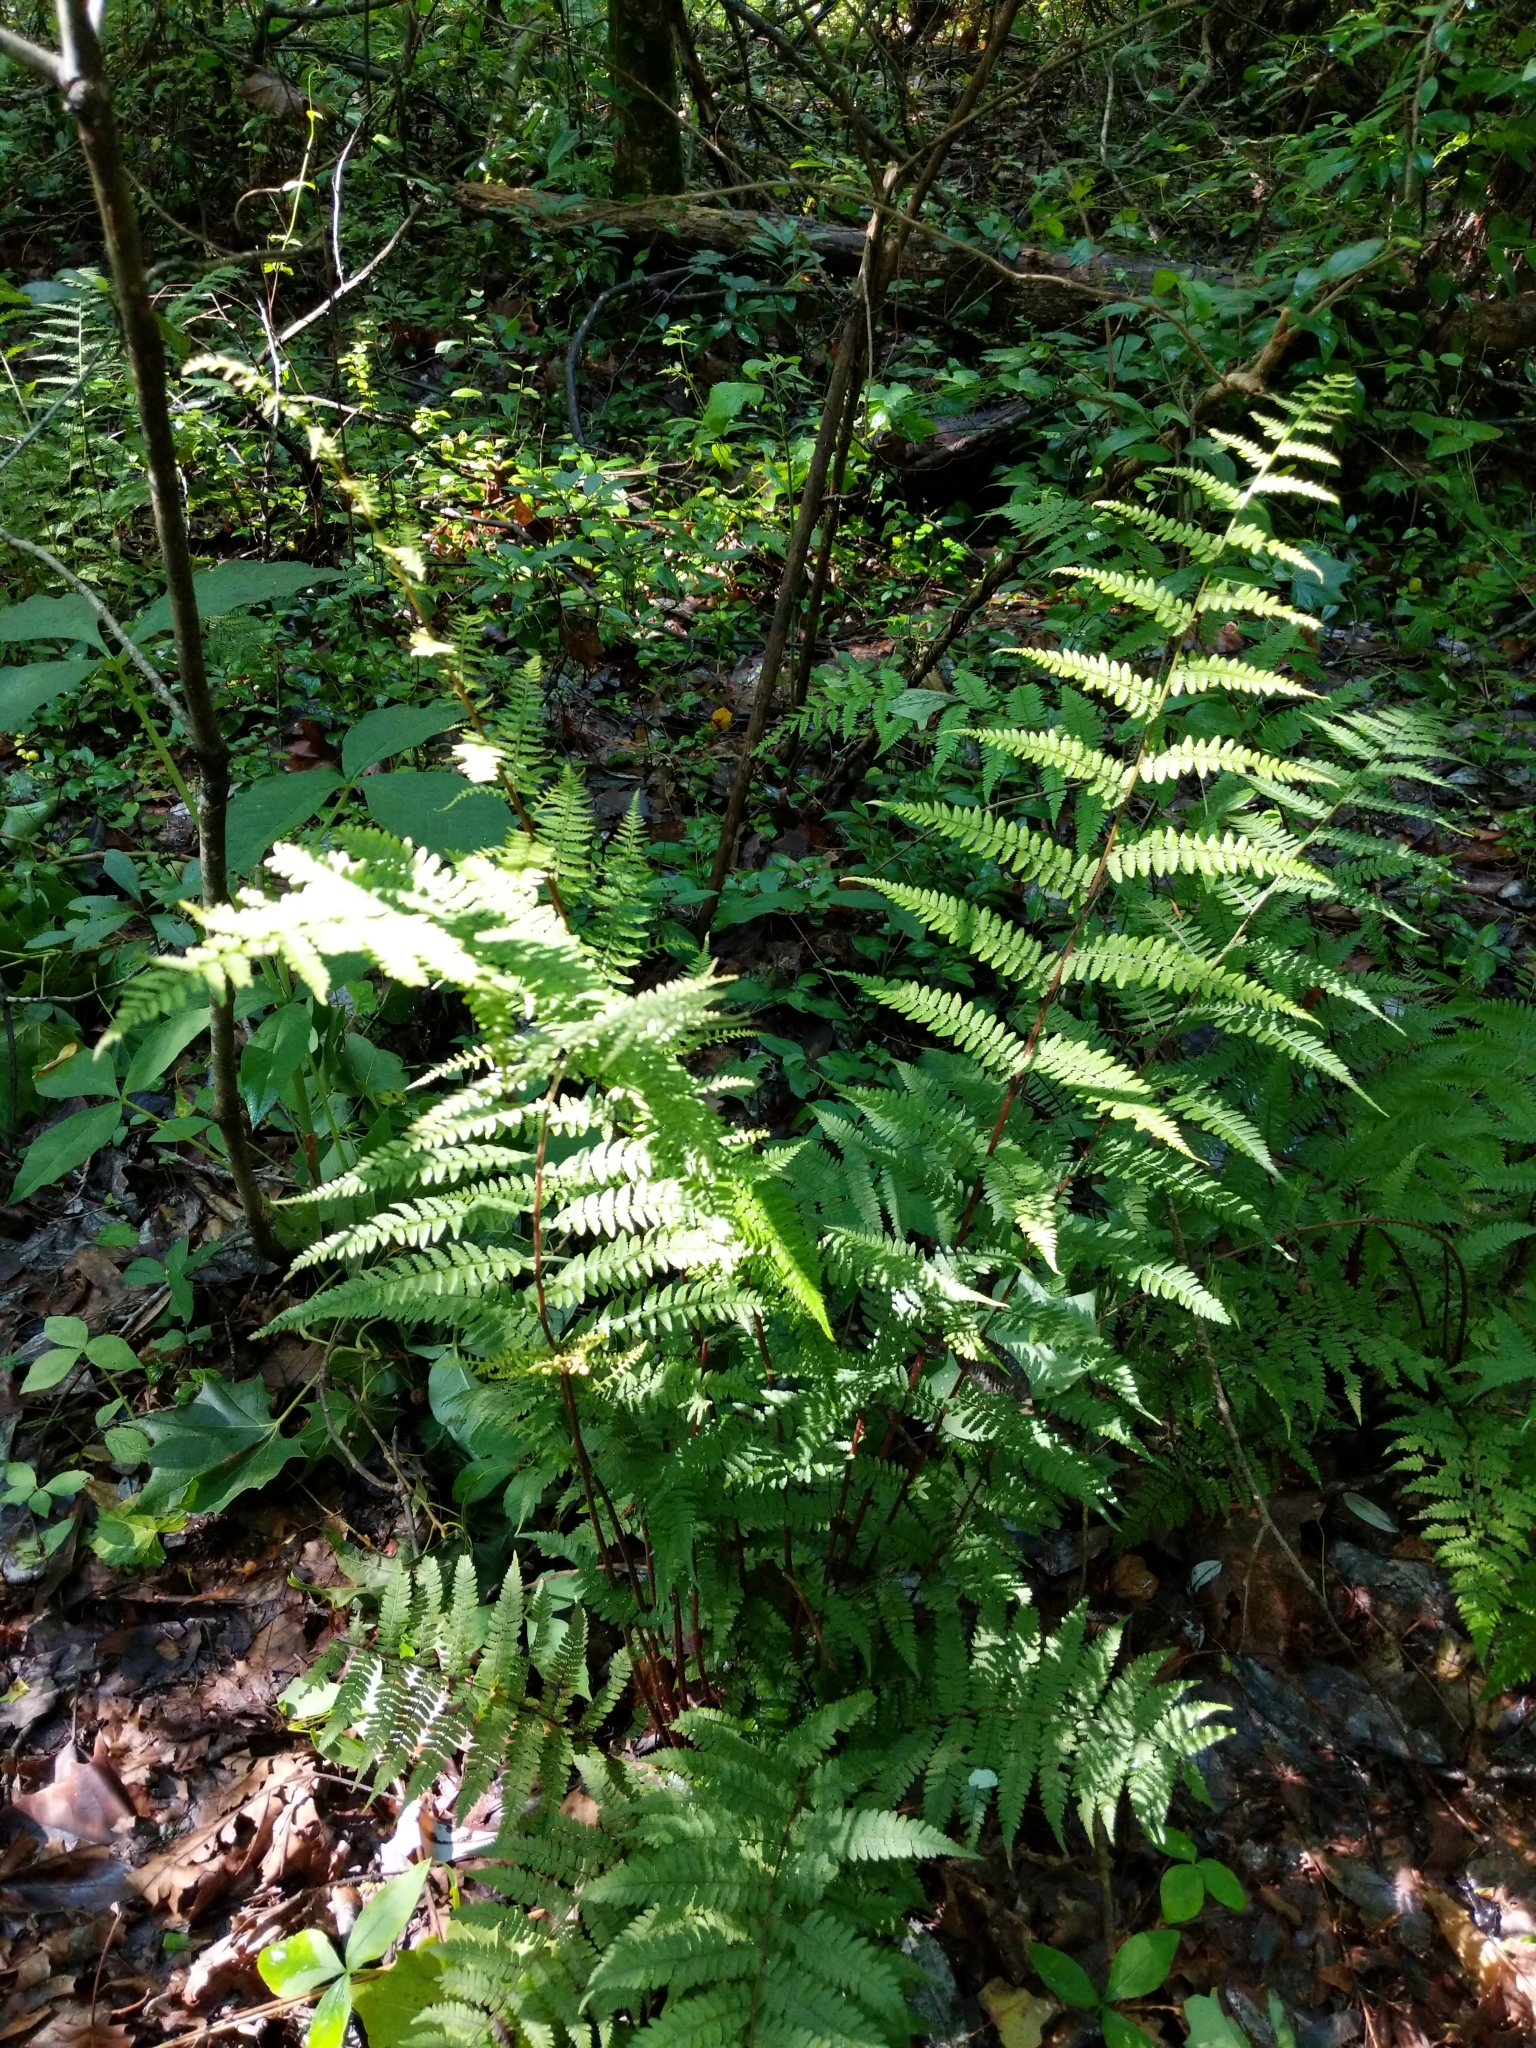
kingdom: Plantae
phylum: Tracheophyta
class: Polypodiopsida
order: Polypodiales
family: Athyriaceae
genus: Athyrium
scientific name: Athyrium asplenioides
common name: Southern lady fern
